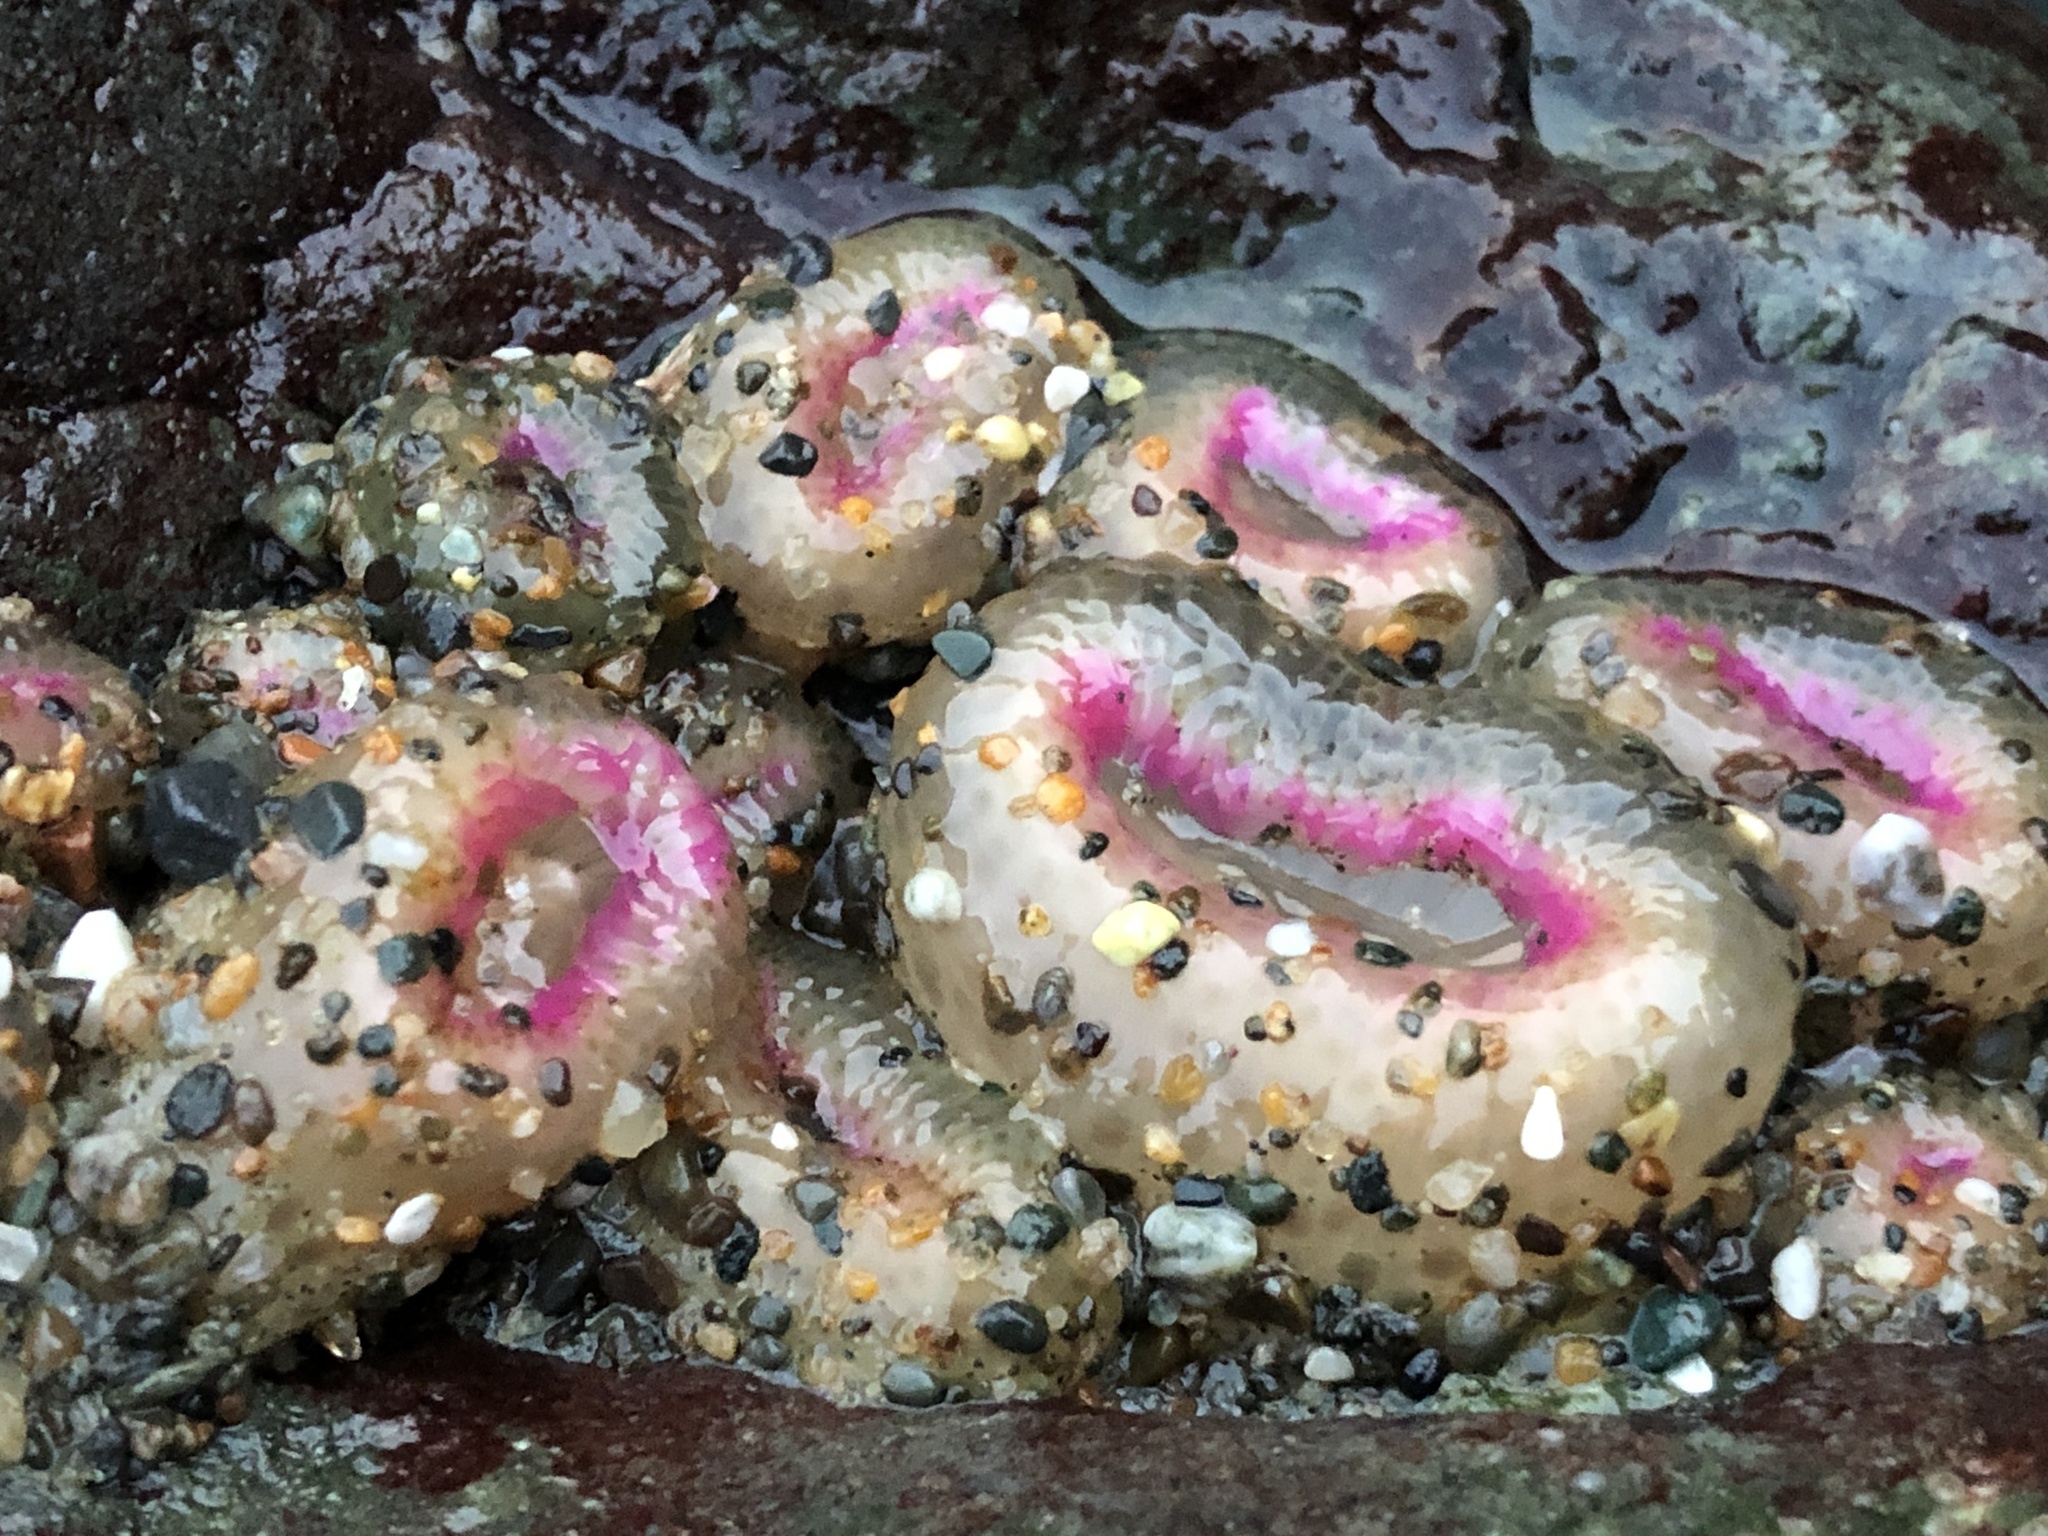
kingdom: Animalia
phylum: Cnidaria
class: Anthozoa
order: Actiniaria
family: Actiniidae
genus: Anthopleura
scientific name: Anthopleura elegantissima
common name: Clonal anemone
